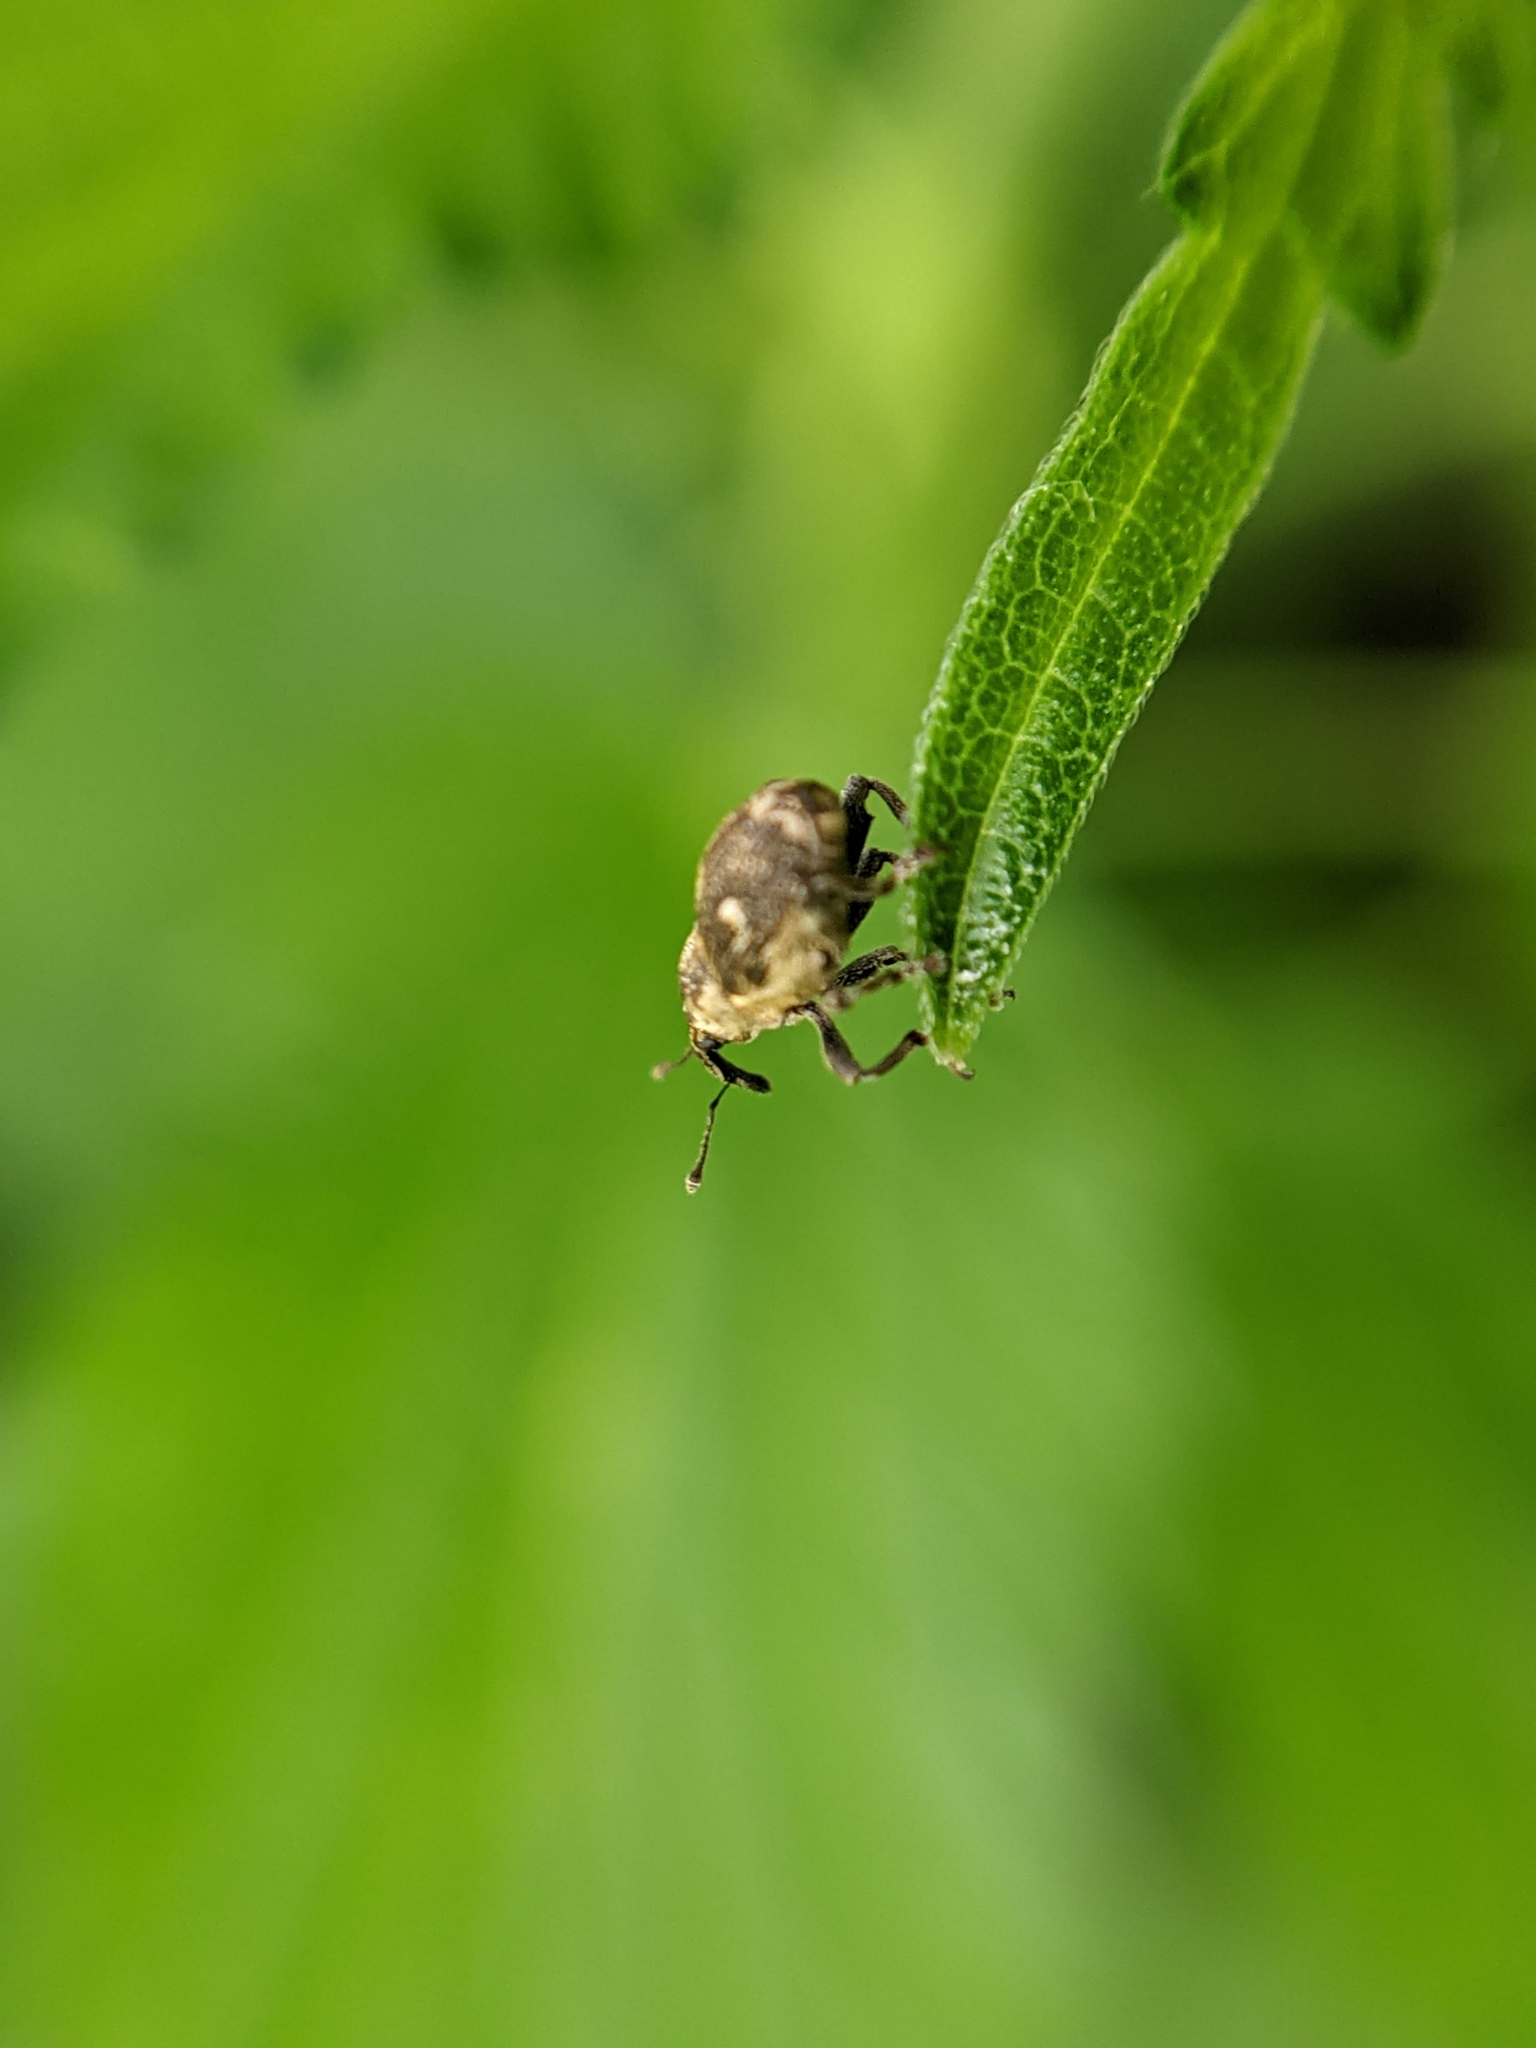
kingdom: Animalia
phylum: Arthropoda
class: Insecta
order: Coleoptera
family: Curculionidae
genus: Nedyus
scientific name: Nedyus quadrimaculatus
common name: Small nettle weevil
